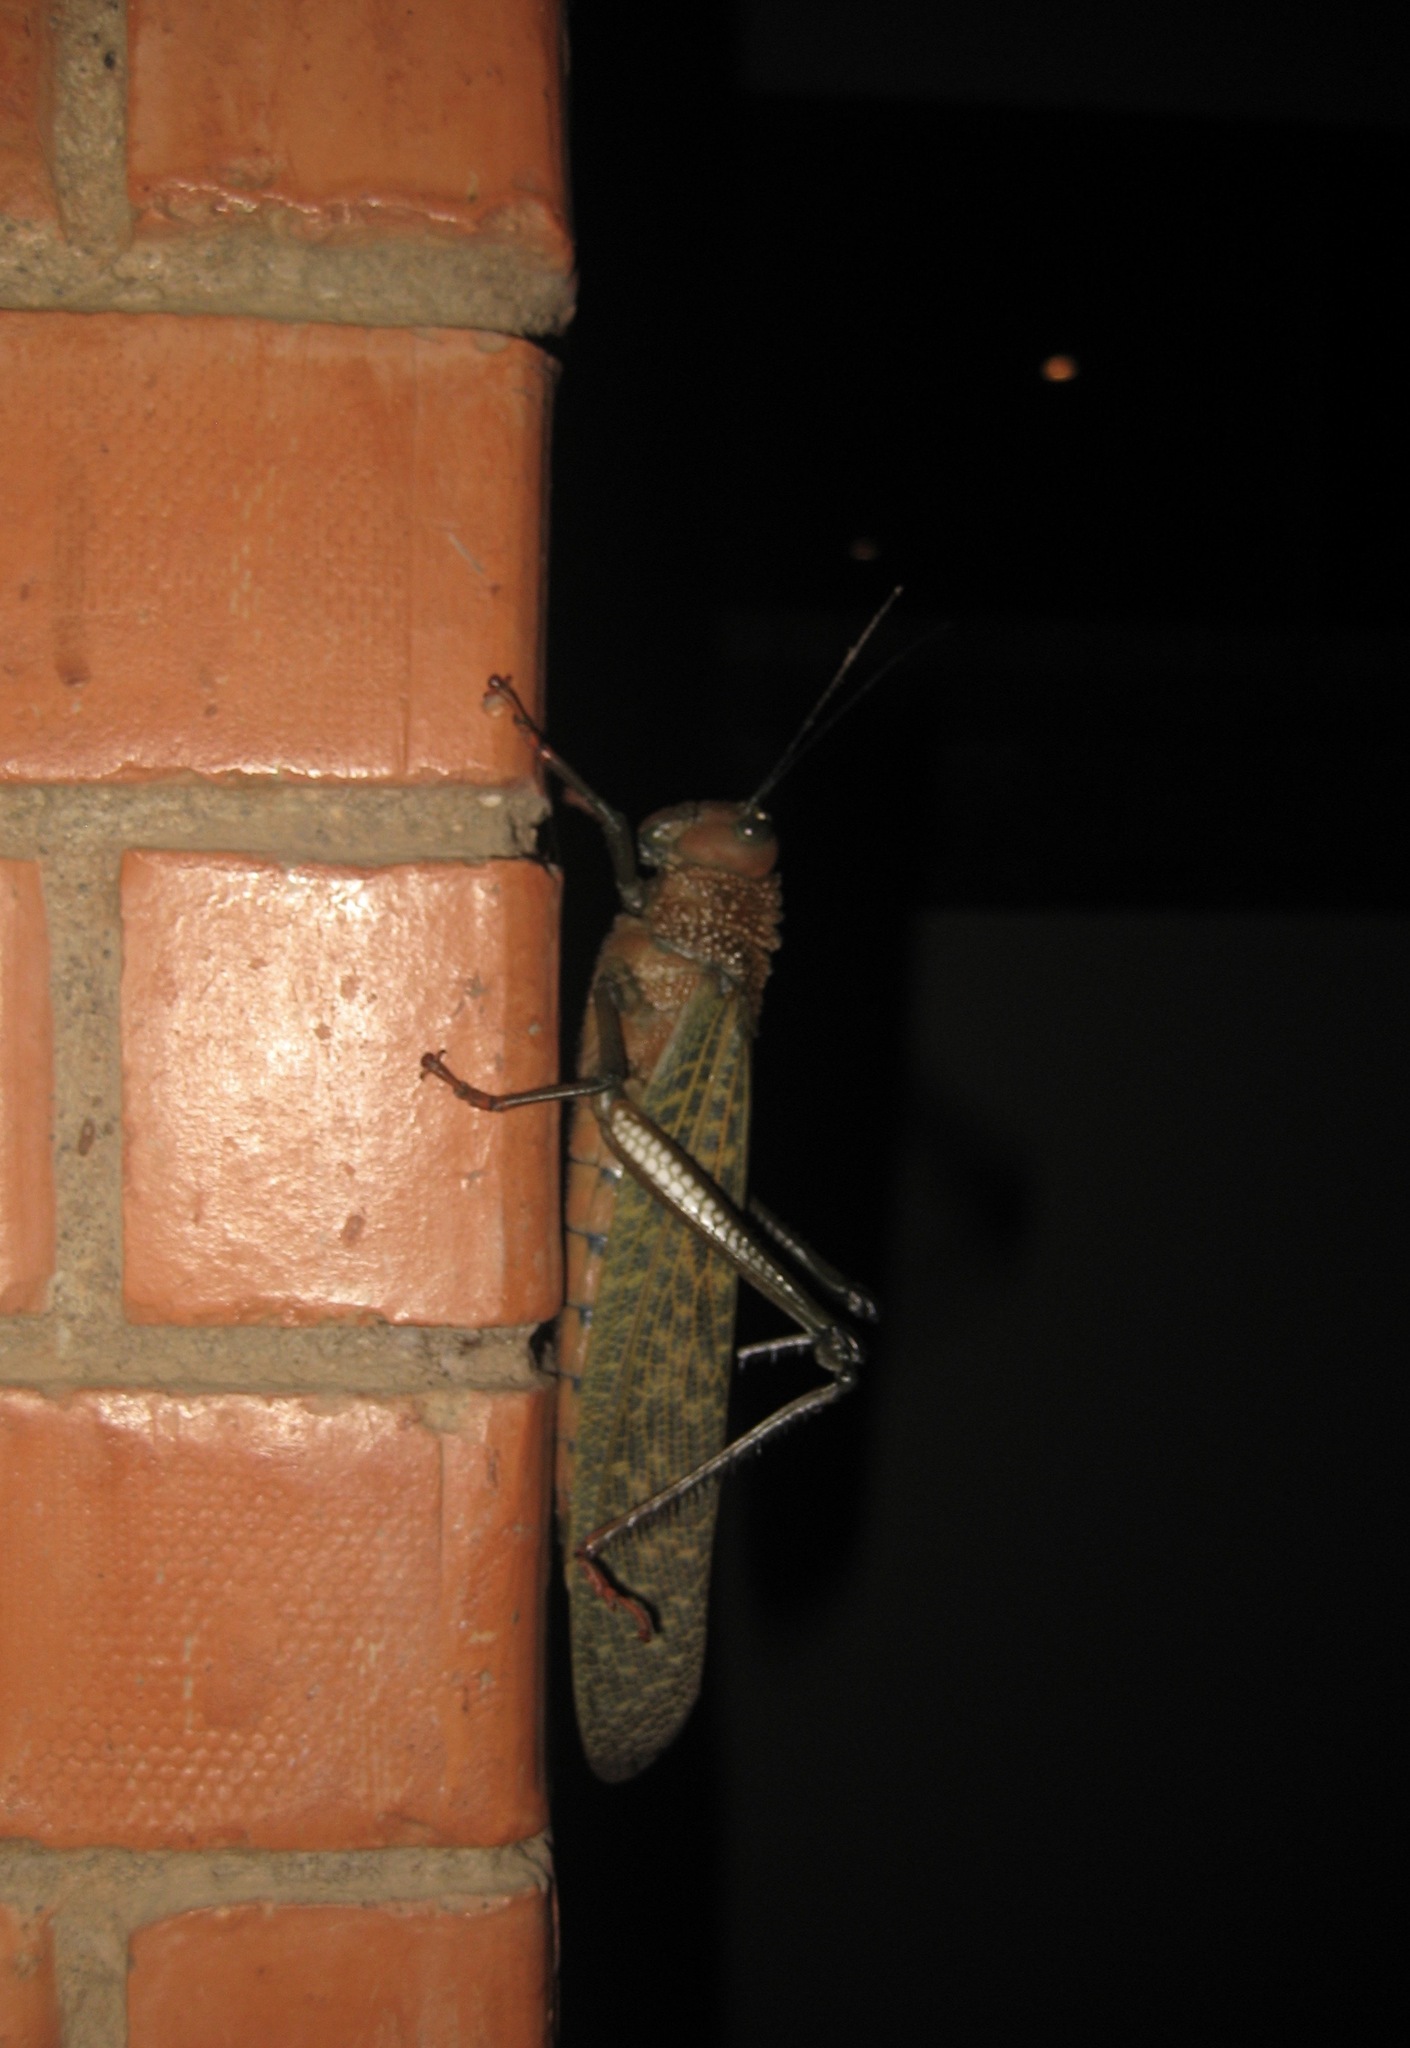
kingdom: Animalia
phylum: Arthropoda
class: Insecta
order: Orthoptera
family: Romaleidae
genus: Tropidacris
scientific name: Tropidacris cristata
